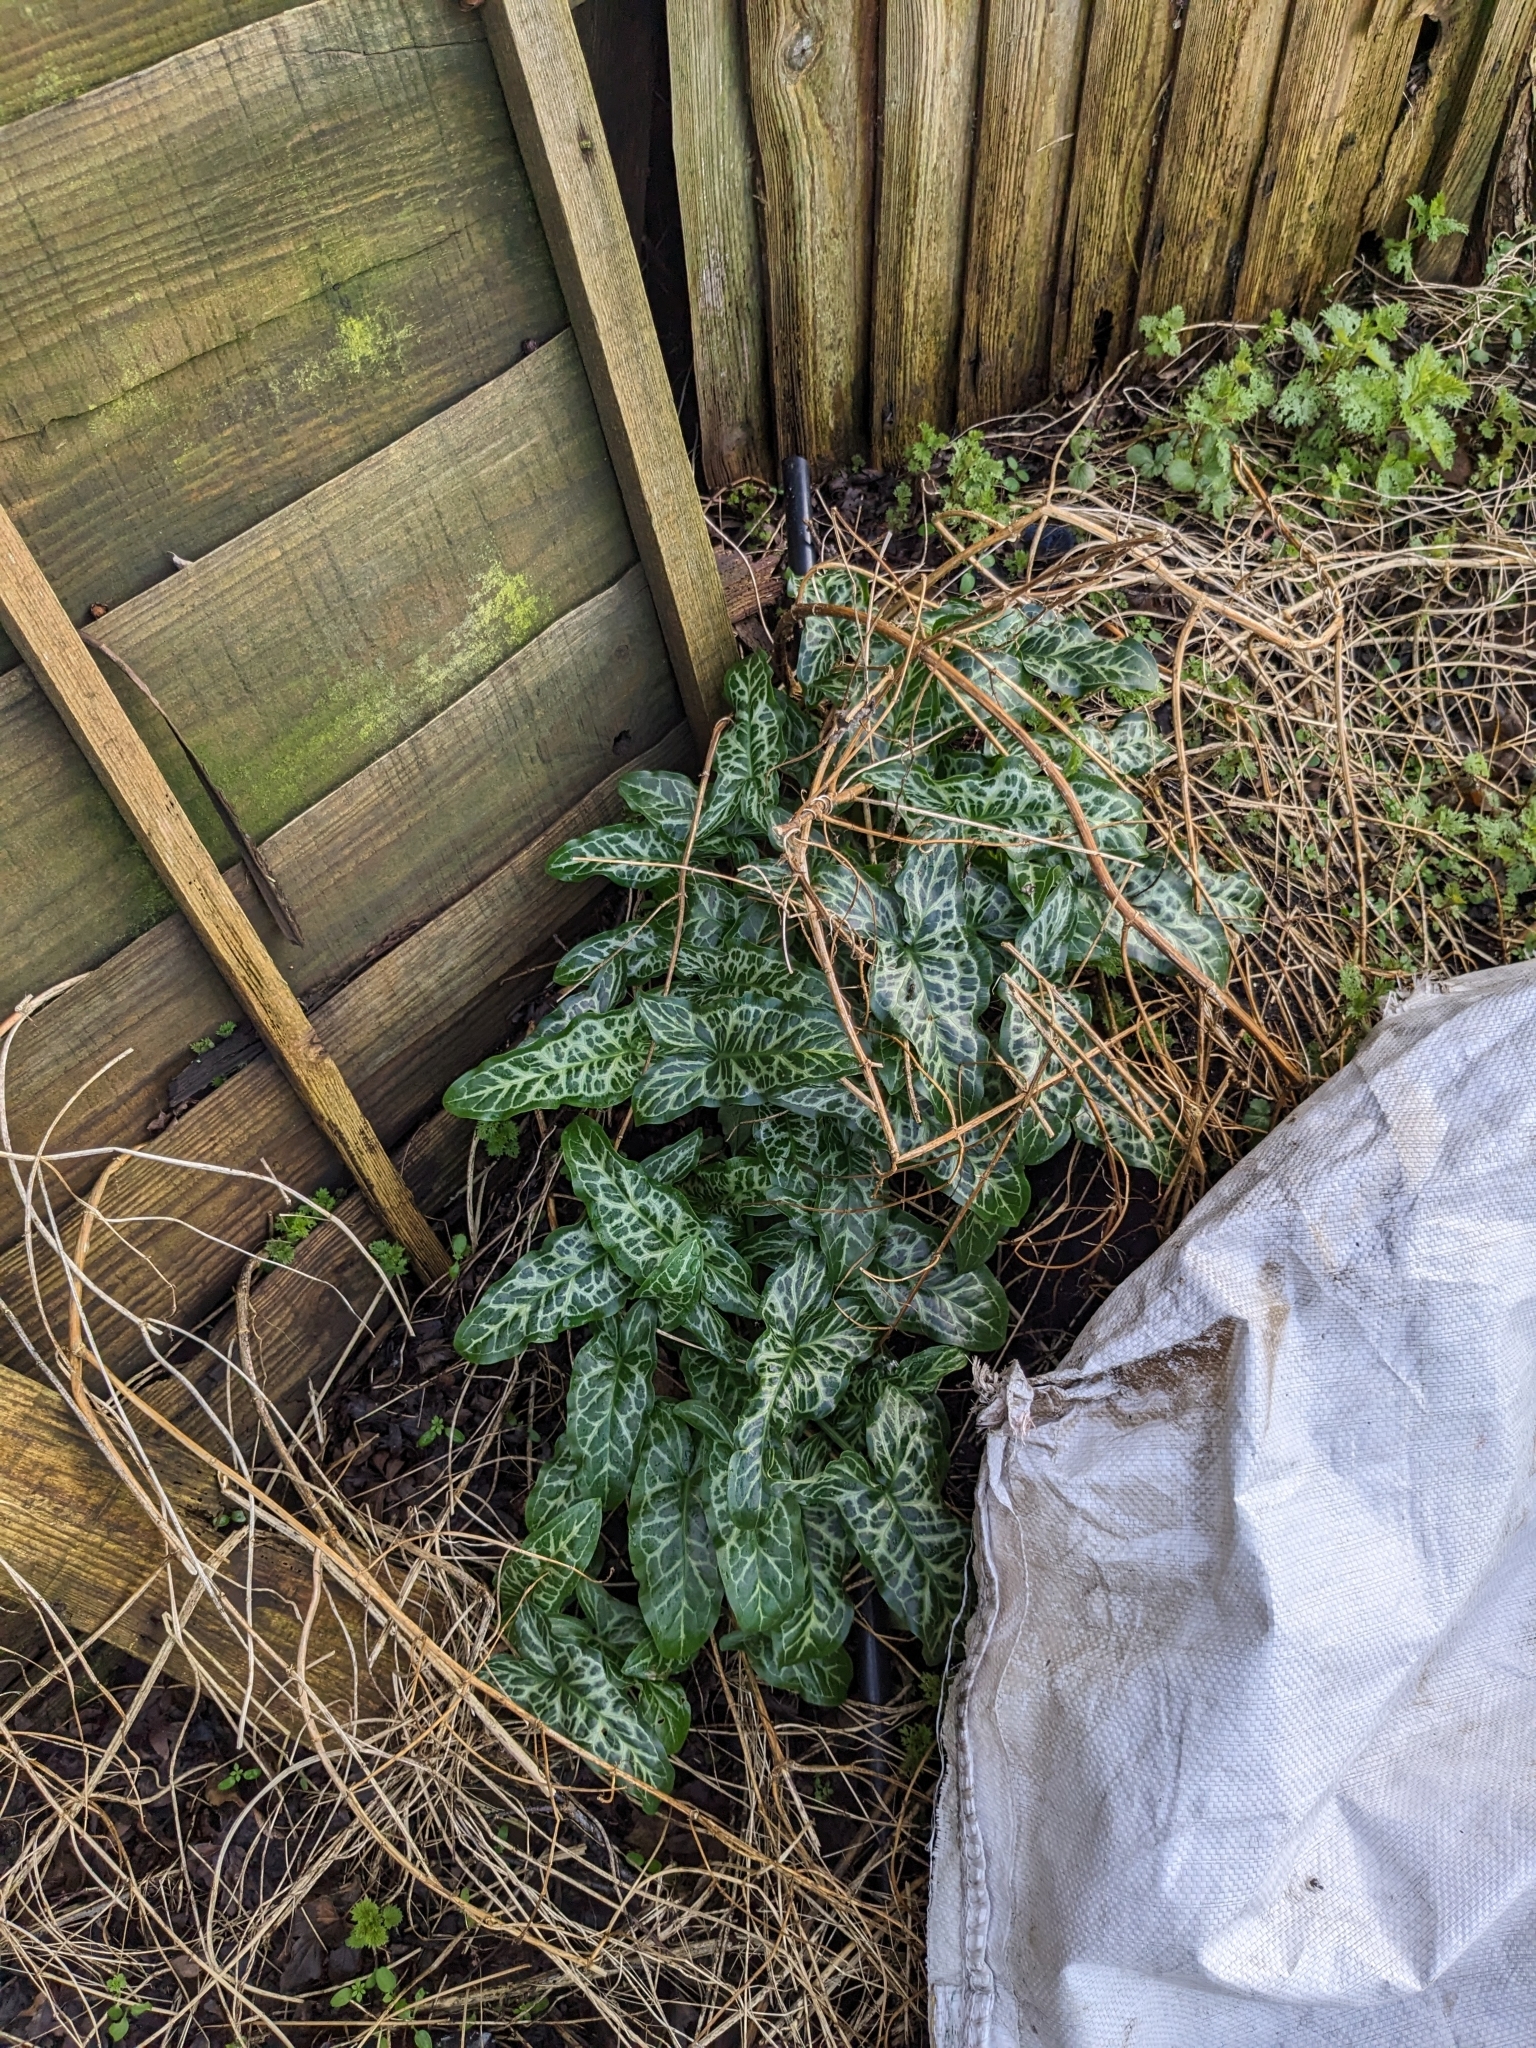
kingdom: Plantae
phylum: Tracheophyta
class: Liliopsida
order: Alismatales
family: Araceae
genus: Arum
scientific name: Arum italicum
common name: Italian lords-and-ladies
